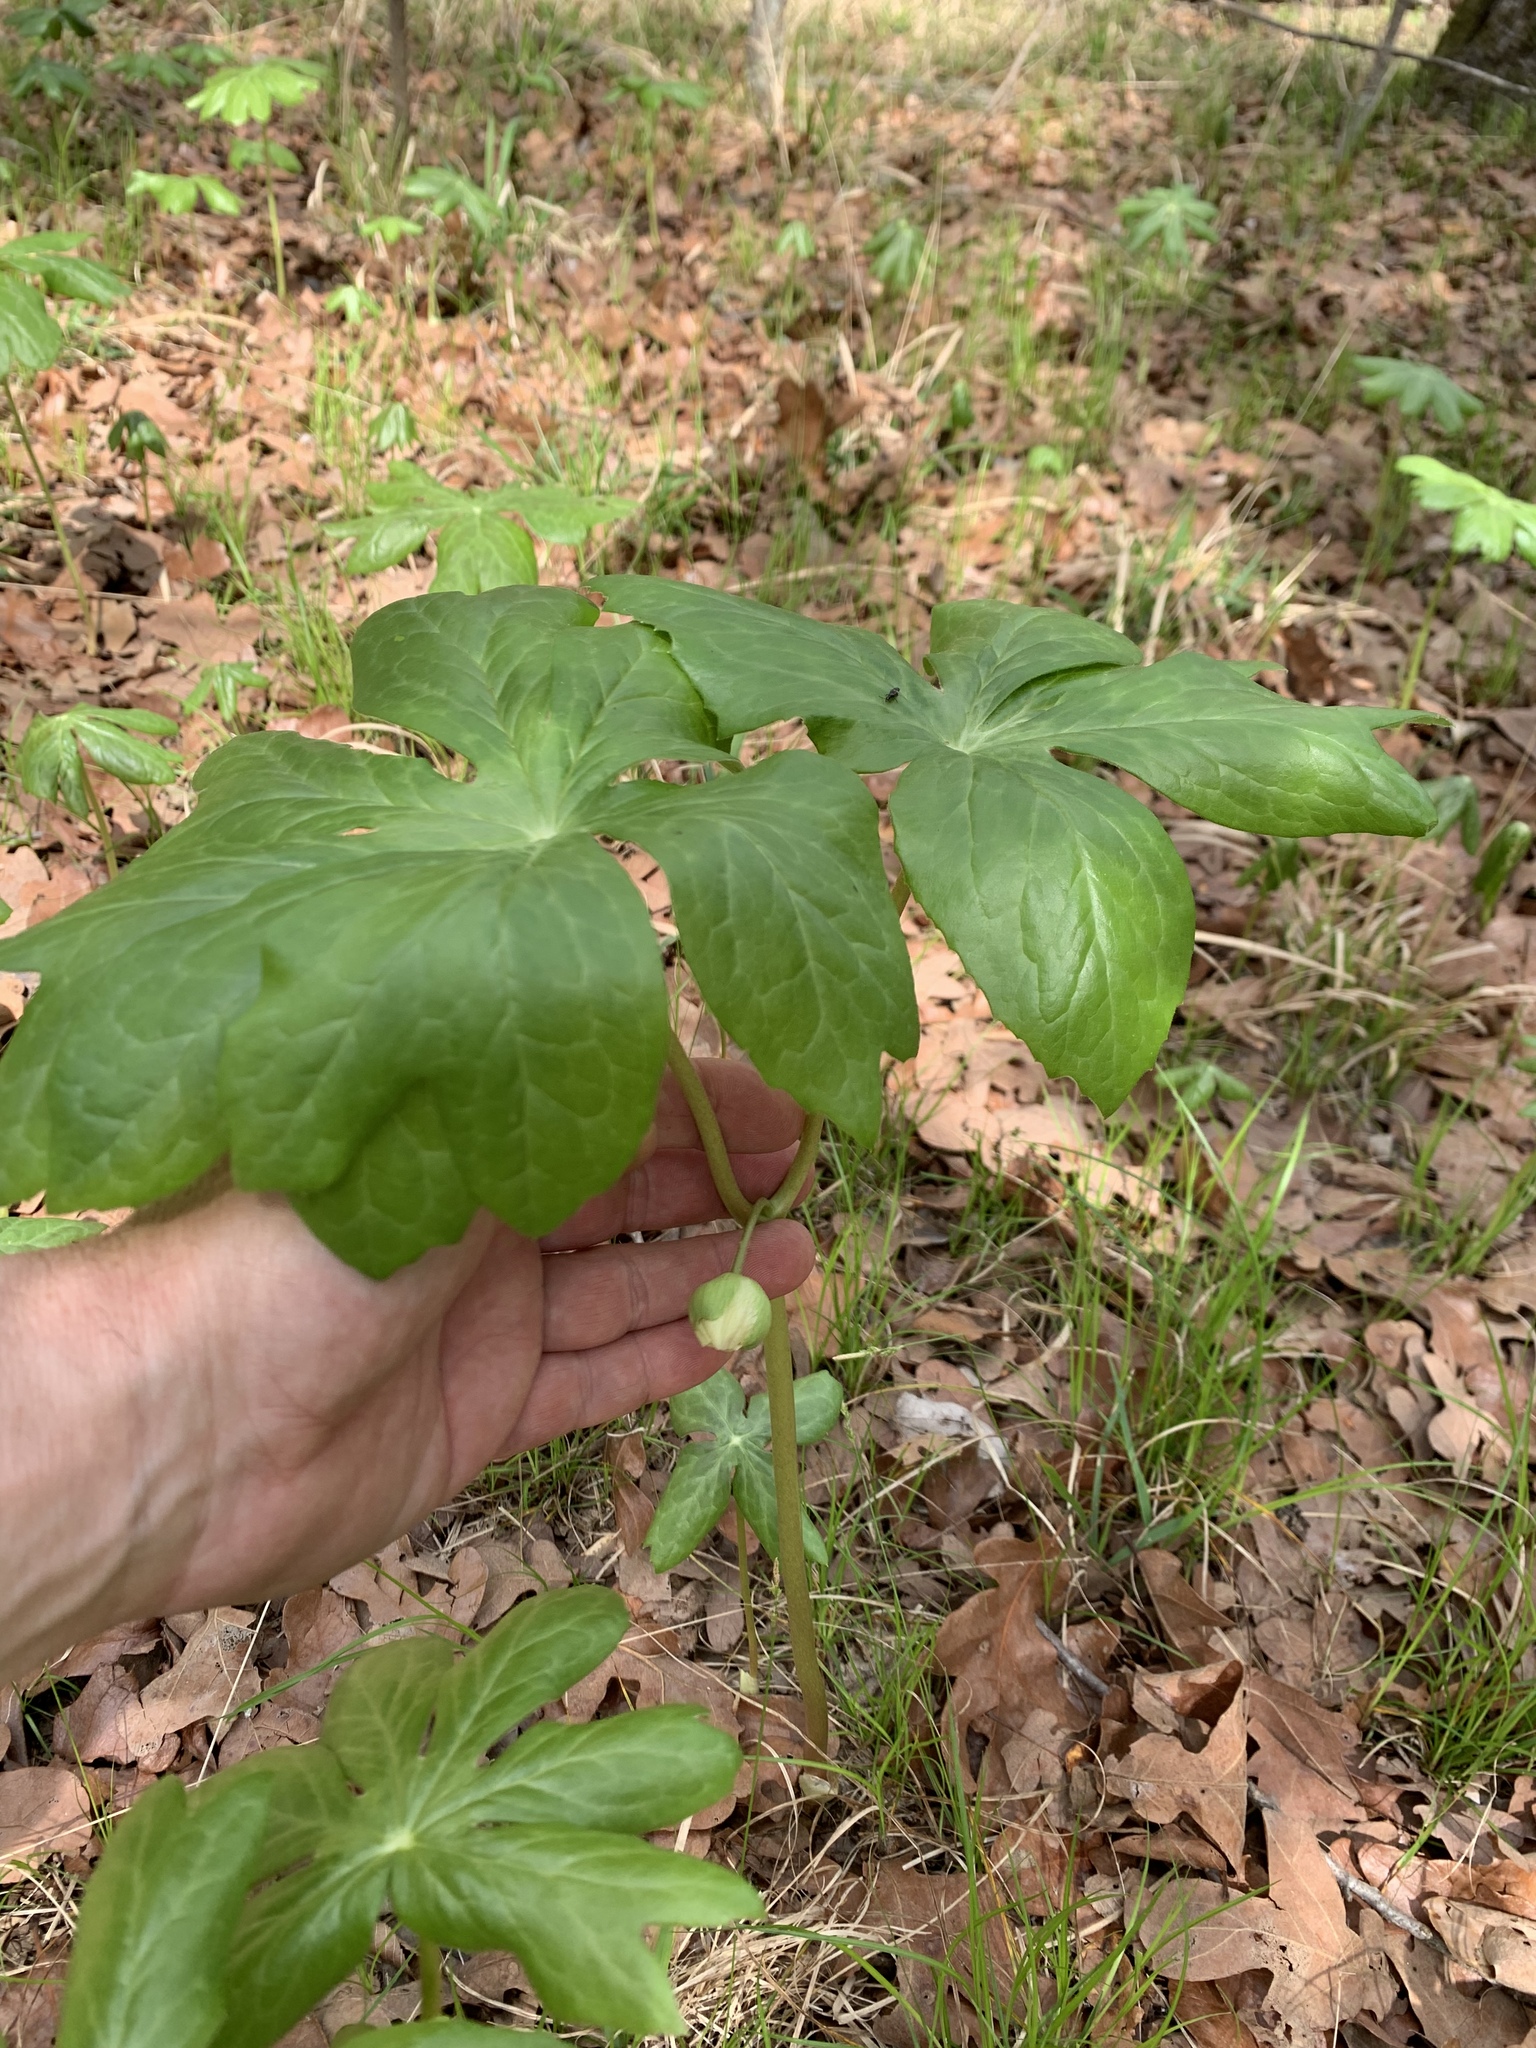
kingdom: Plantae
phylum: Tracheophyta
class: Magnoliopsida
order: Ranunculales
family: Berberidaceae
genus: Podophyllum
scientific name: Podophyllum peltatum
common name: Wild mandrake
